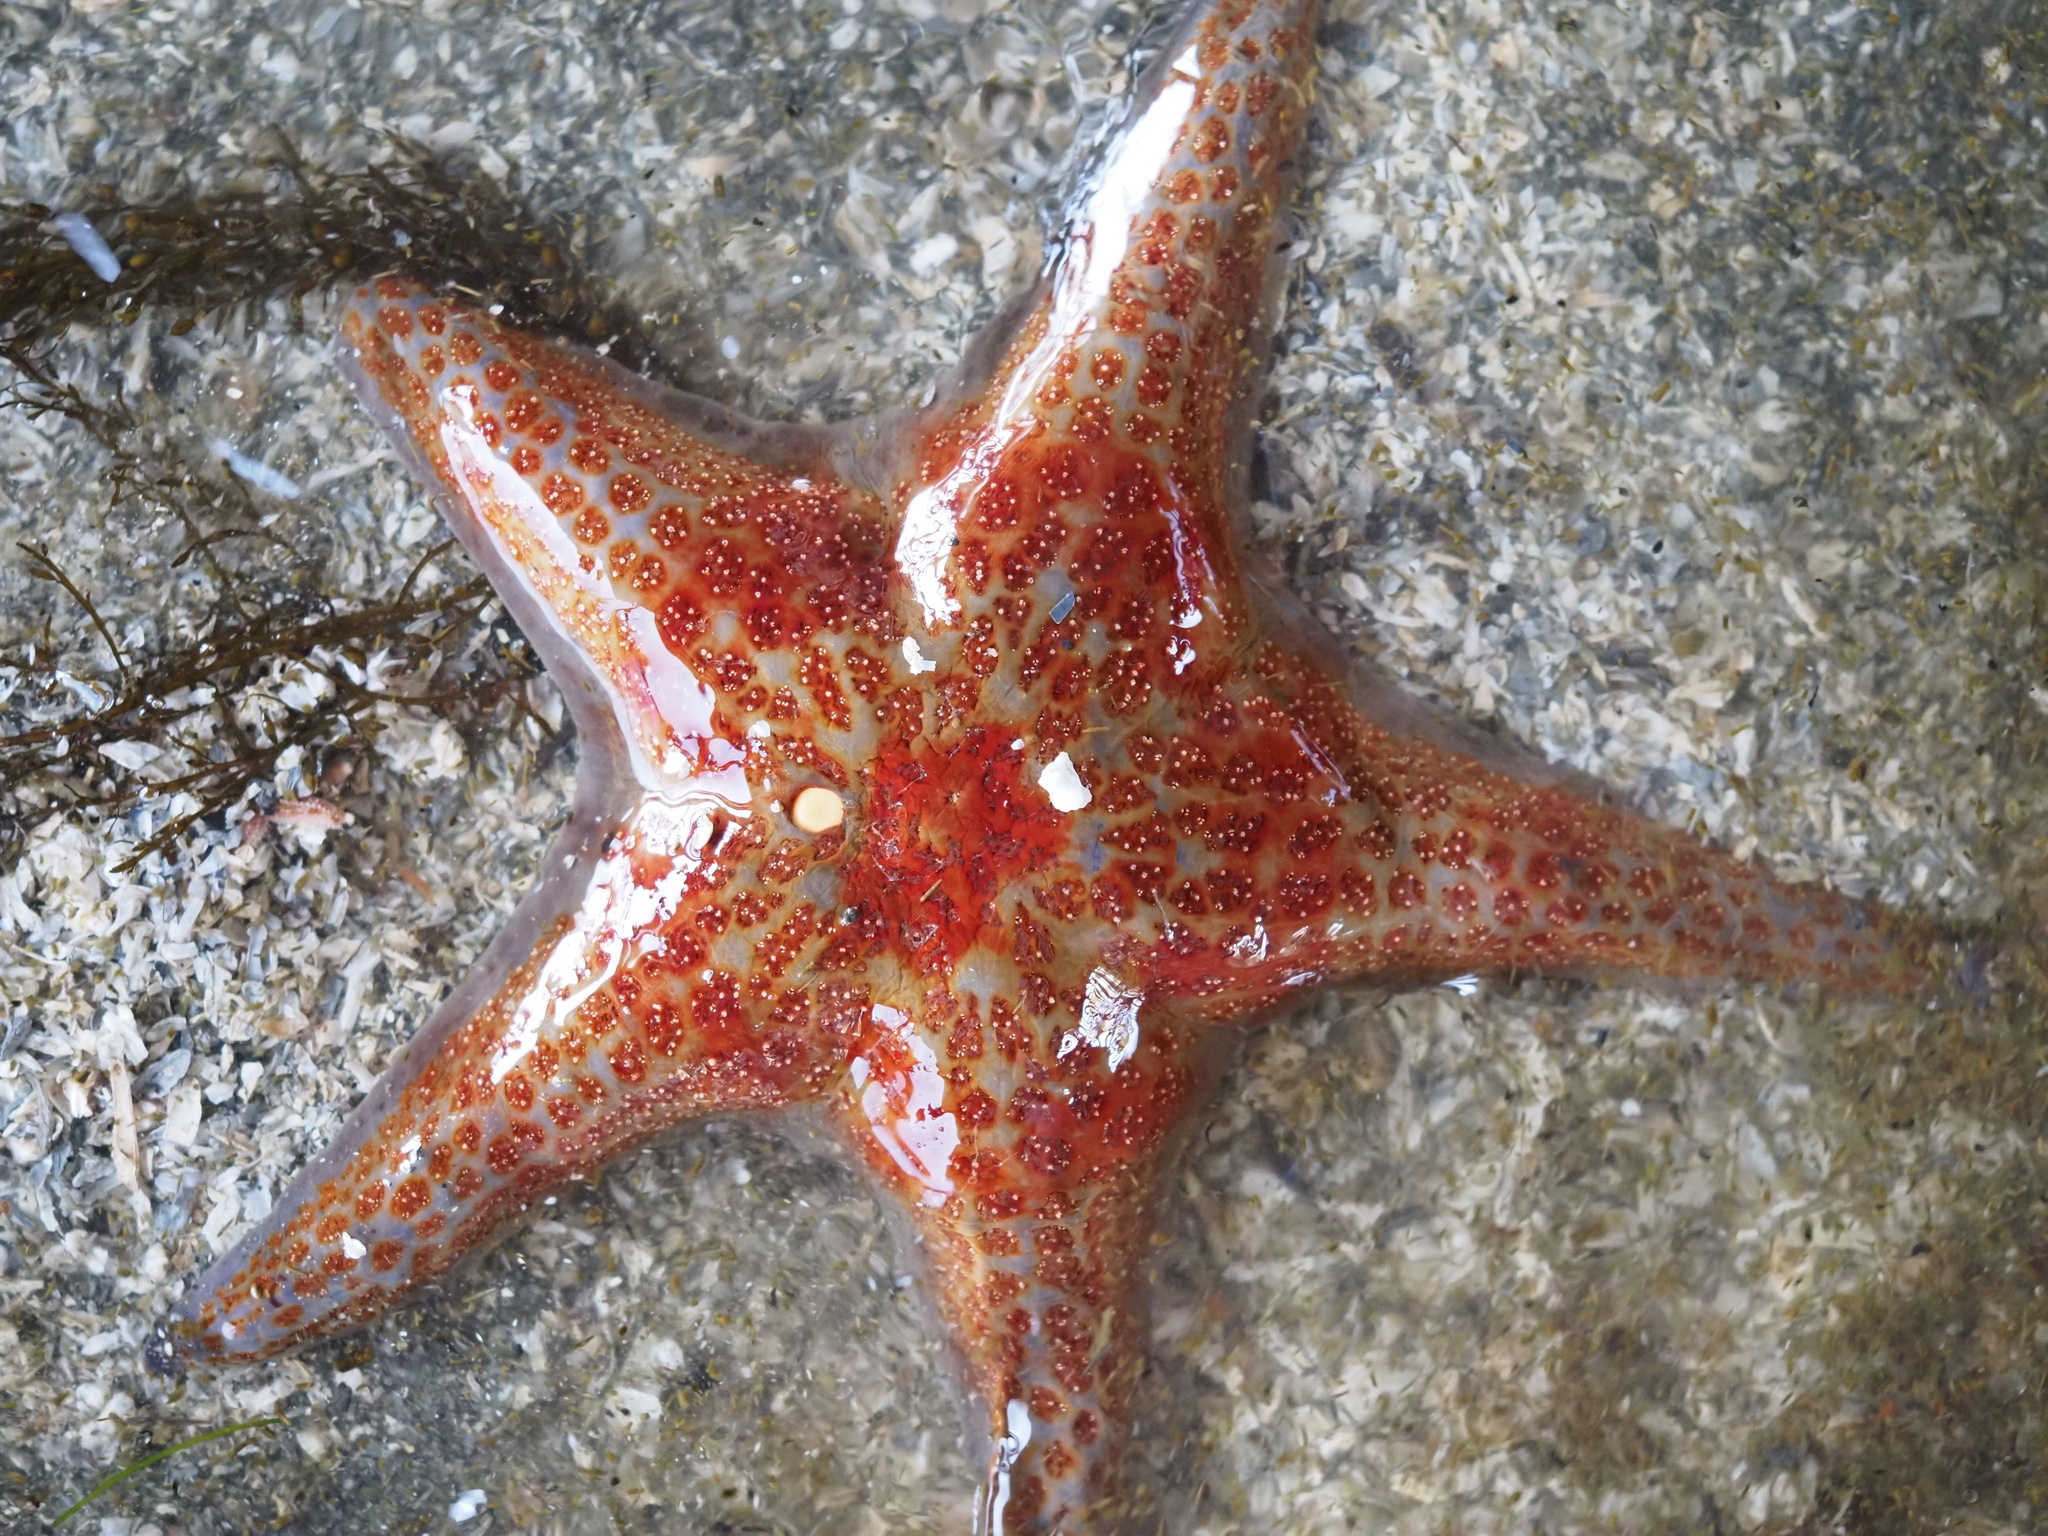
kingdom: Animalia
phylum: Echinodermata
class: Asteroidea
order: Valvatida
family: Asteropseidae
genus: Dermasterias
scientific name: Dermasterias imbricata
